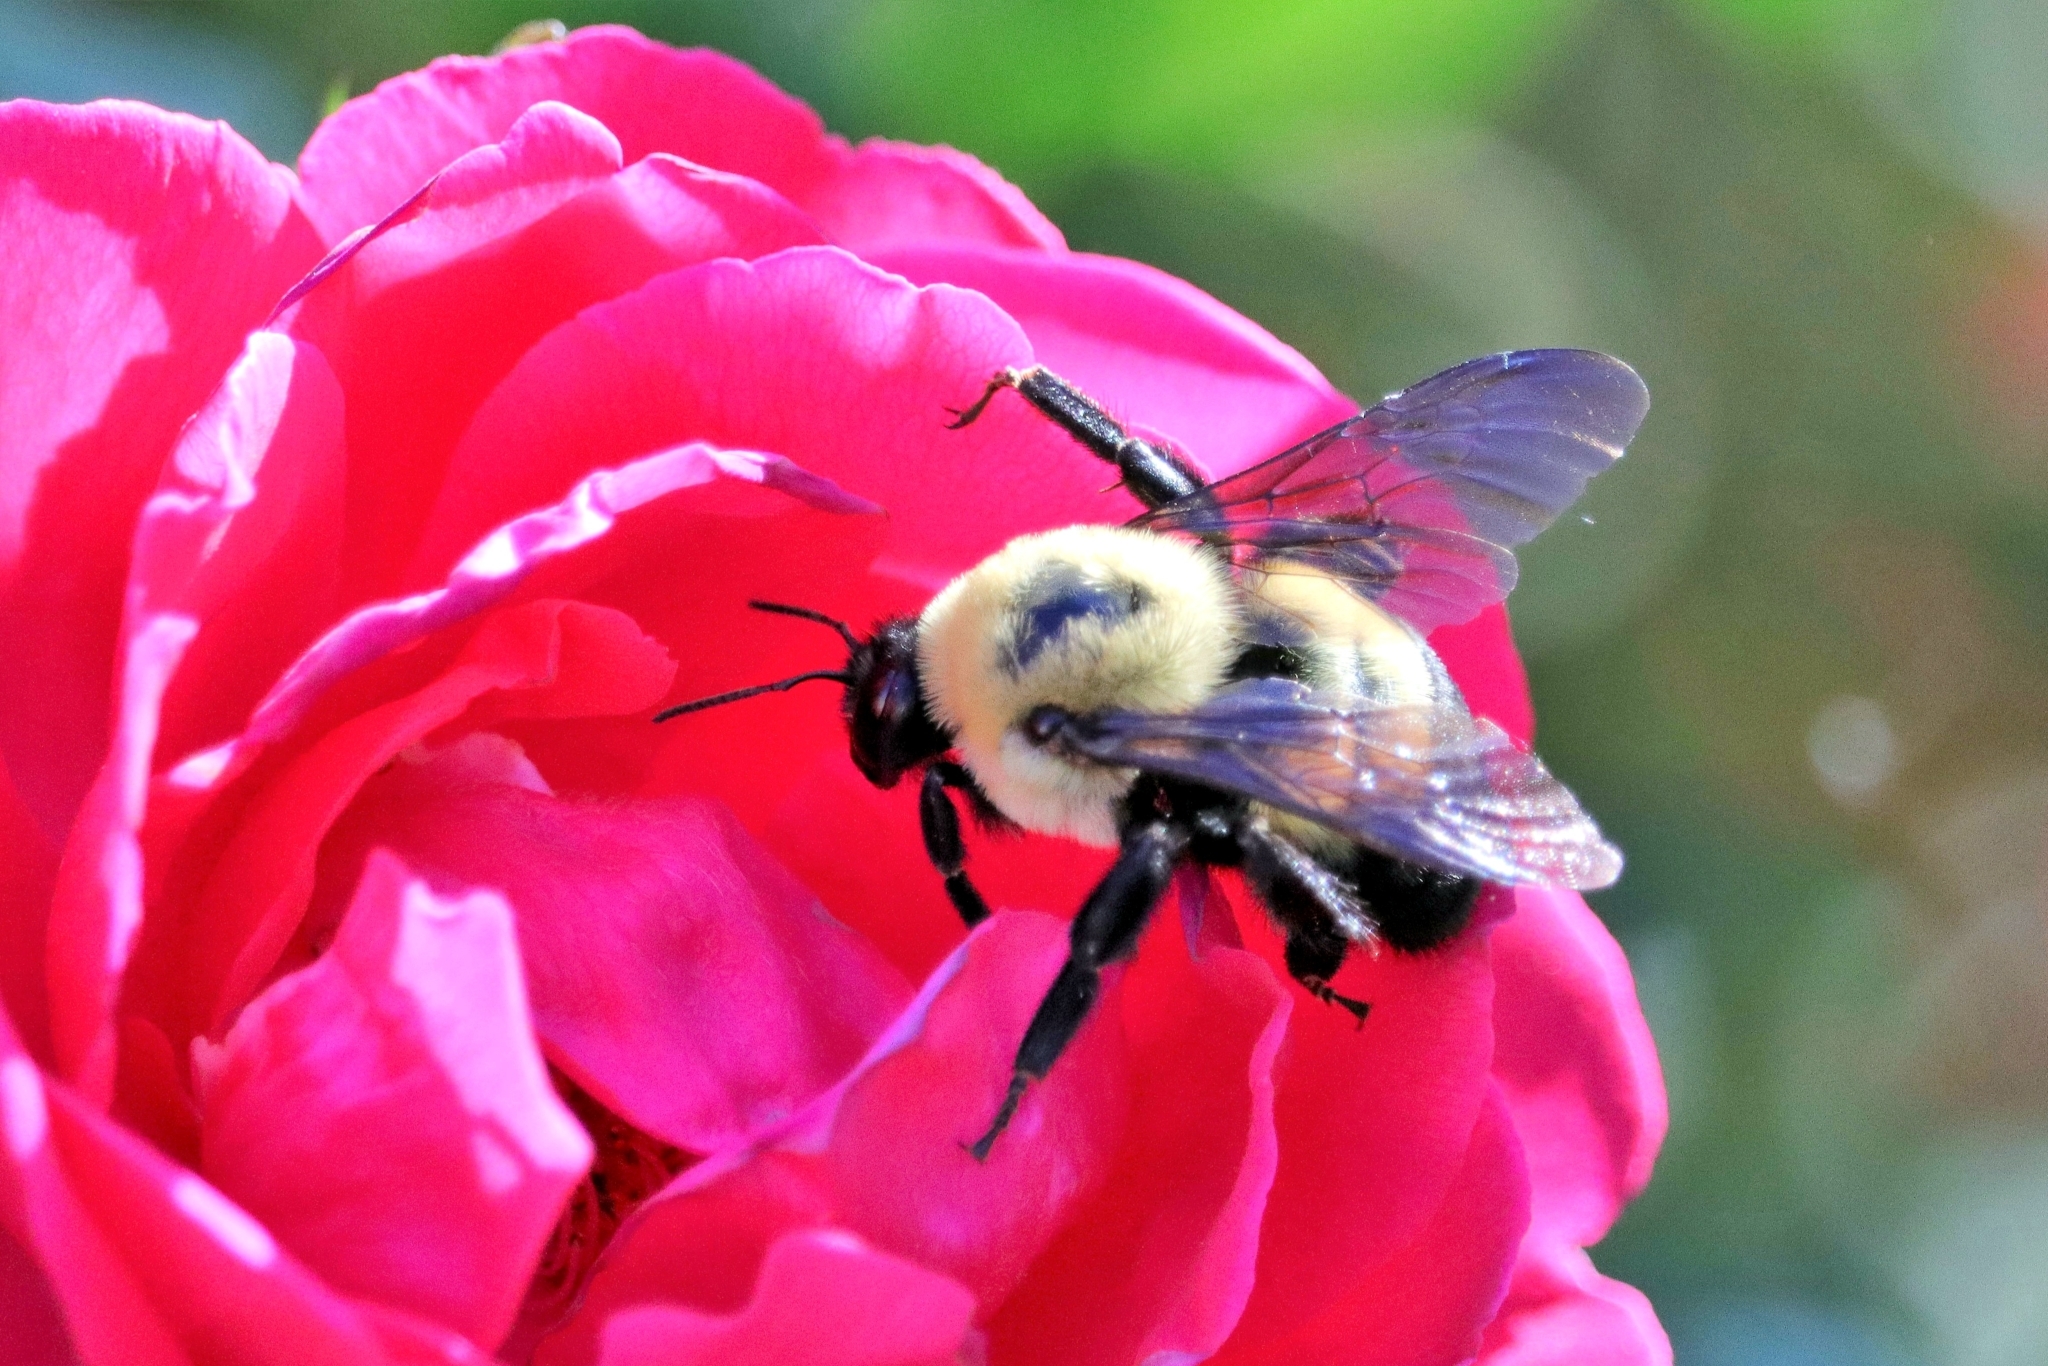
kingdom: Animalia
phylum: Arthropoda
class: Insecta
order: Hymenoptera
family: Apidae
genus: Bombus
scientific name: Bombus griseocollis
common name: Brown-belted bumble bee
